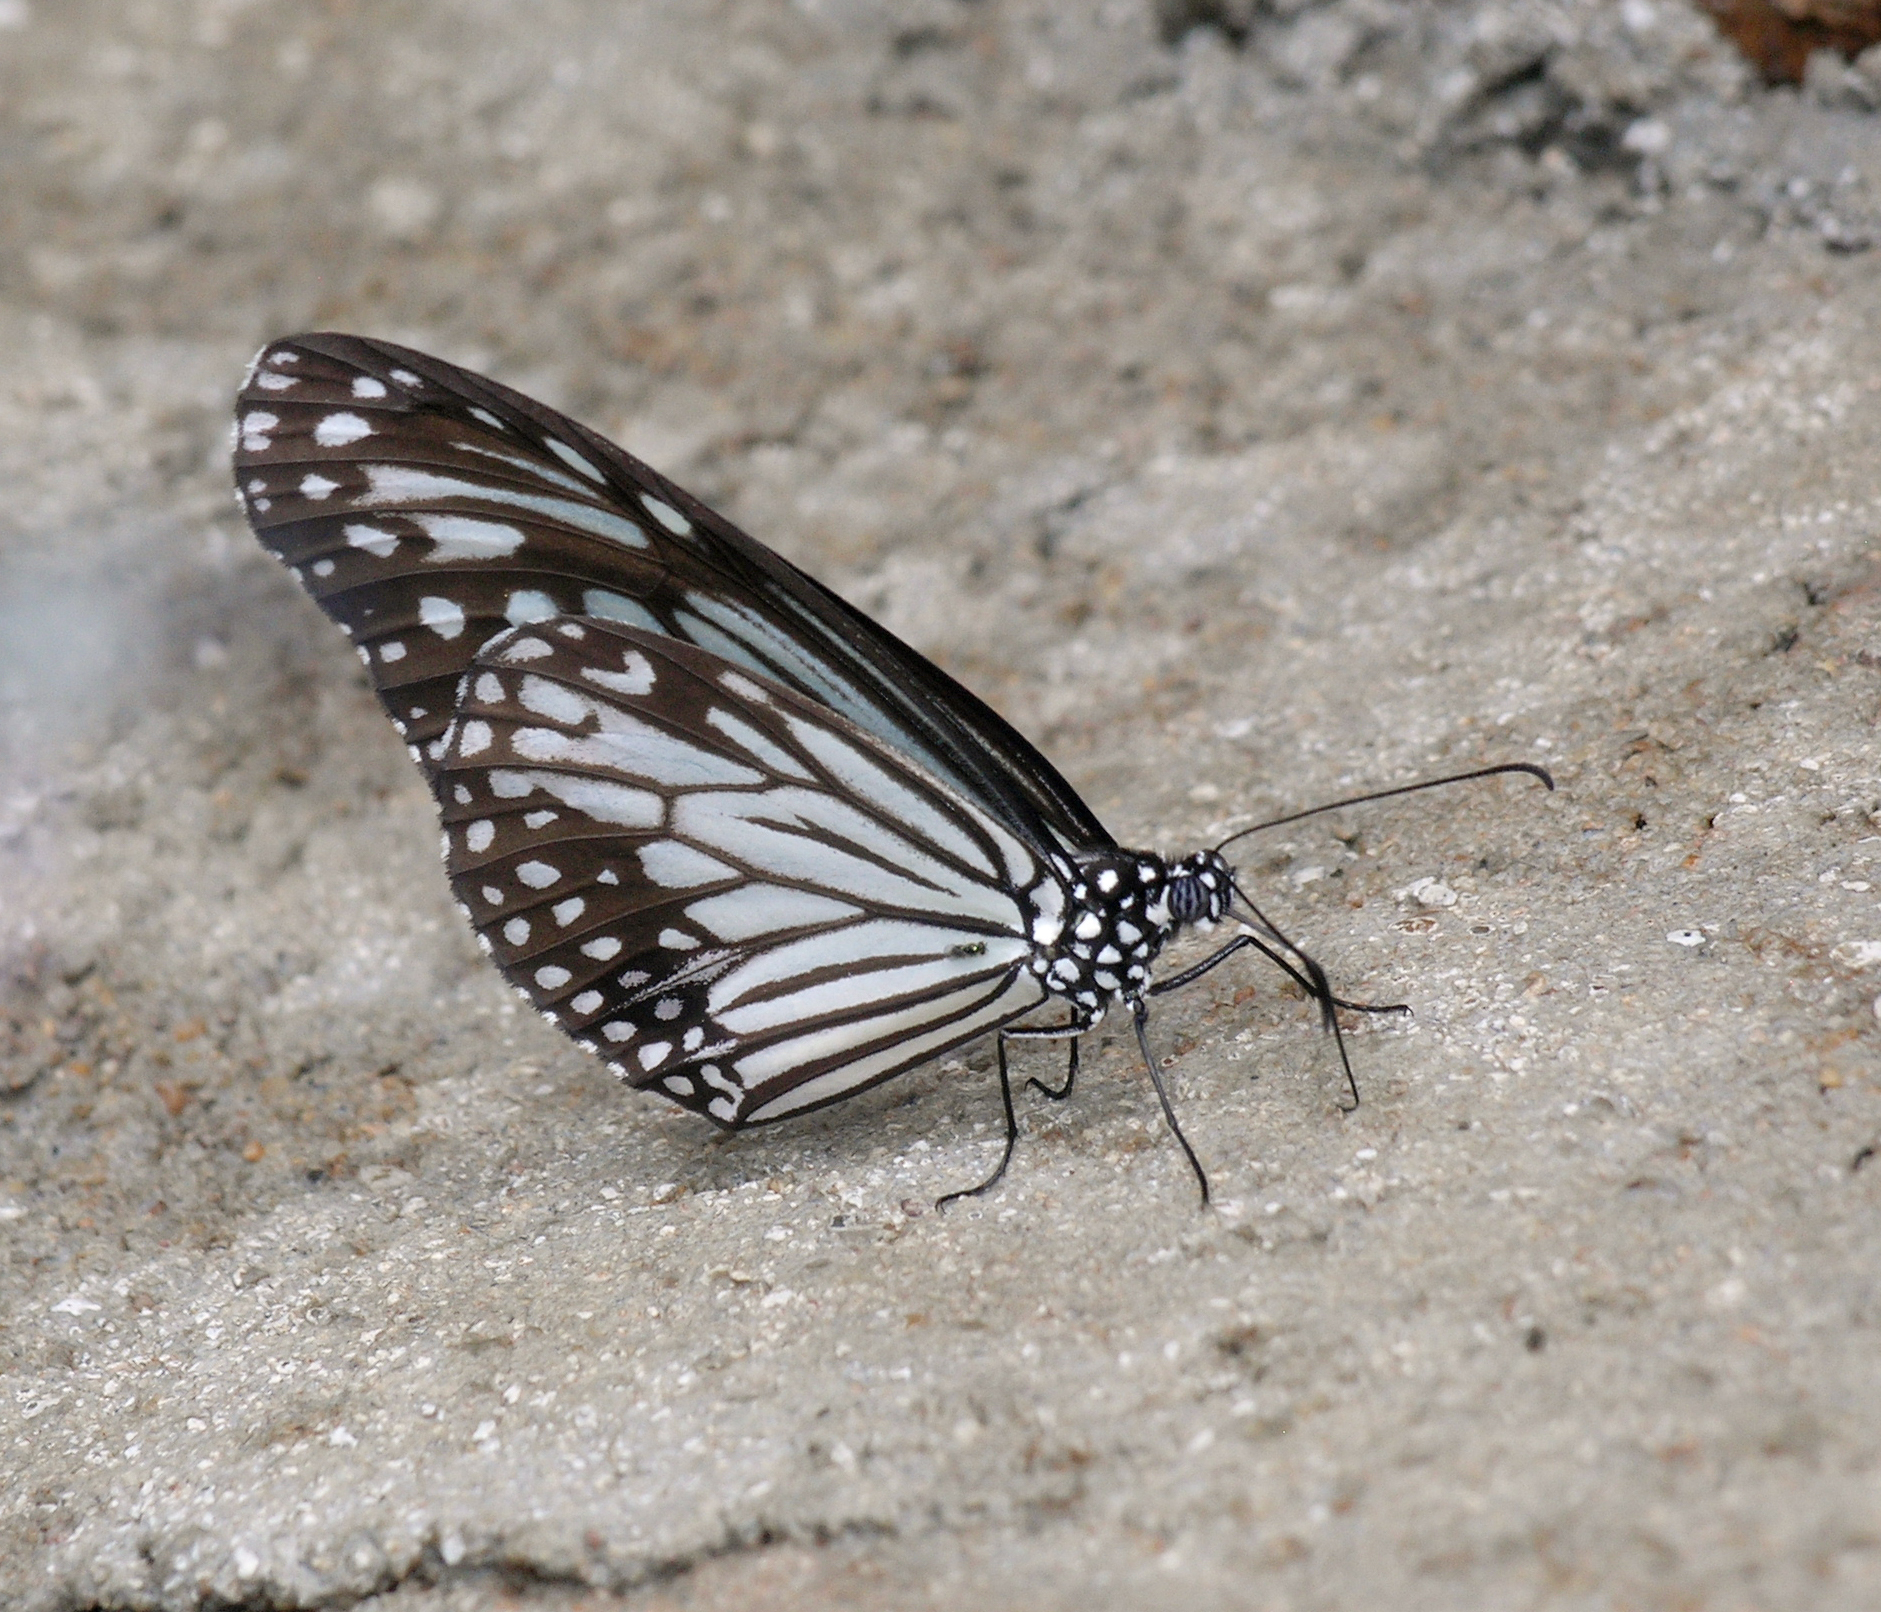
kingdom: Animalia
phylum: Arthropoda
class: Insecta
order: Lepidoptera
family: Nymphalidae
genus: Parantica
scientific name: Parantica aglea
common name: Glassy tiger
